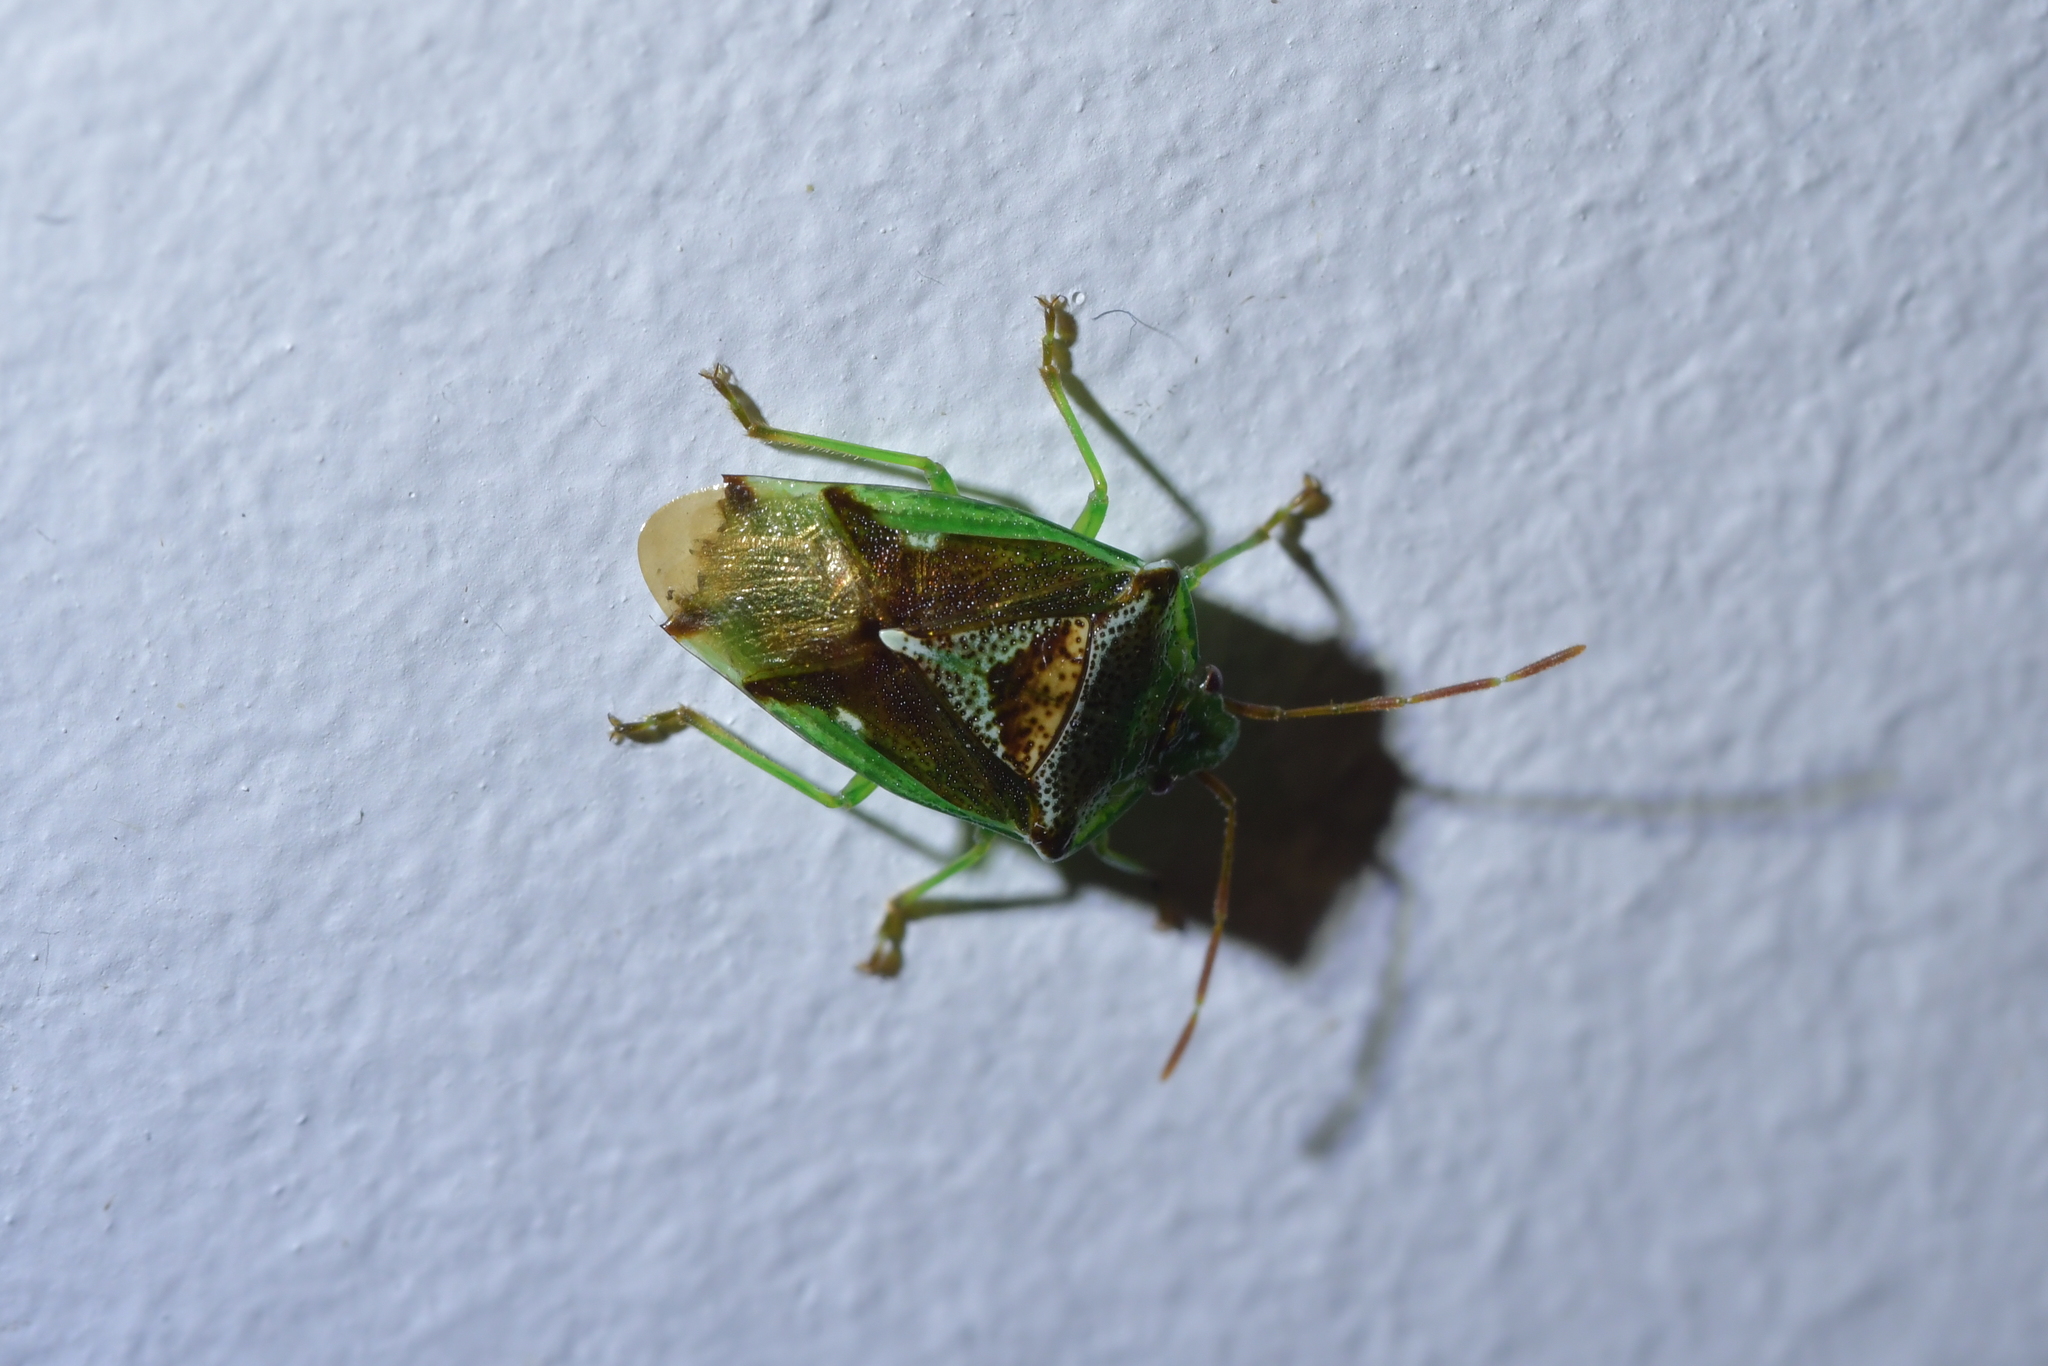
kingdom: Animalia
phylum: Arthropoda
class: Insecta
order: Hemiptera
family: Acanthosomatidae
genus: Oncacontias
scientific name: Oncacontias vittatus
